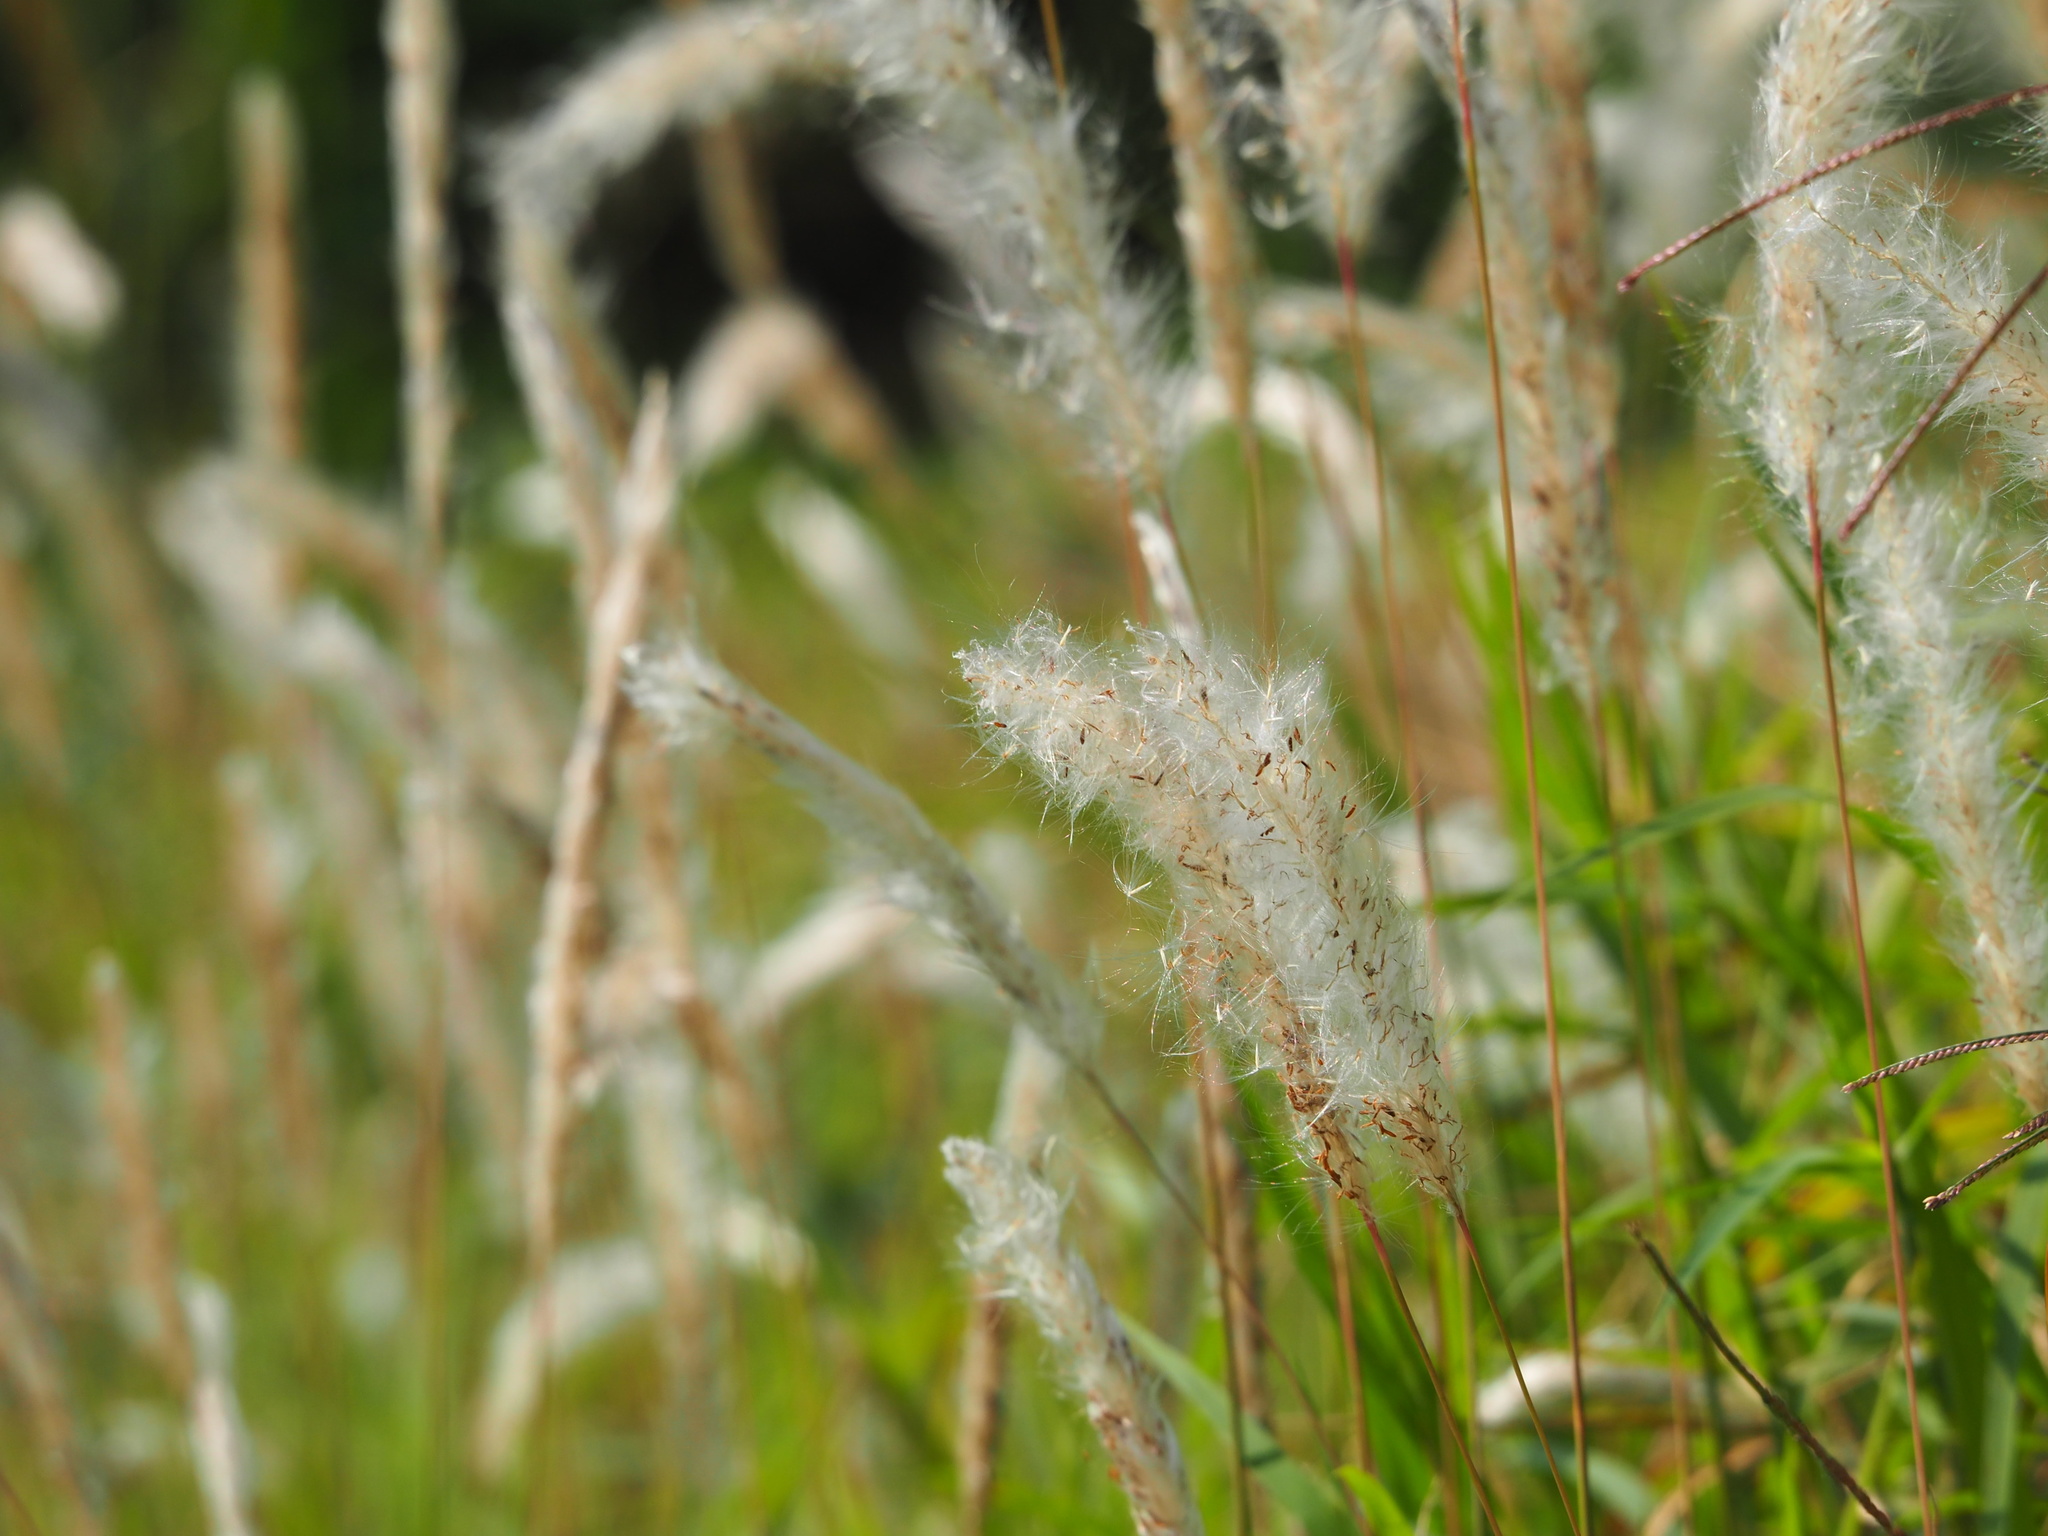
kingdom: Plantae
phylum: Tracheophyta
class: Liliopsida
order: Poales
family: Poaceae
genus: Imperata
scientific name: Imperata cylindrica
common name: Cogongrass
